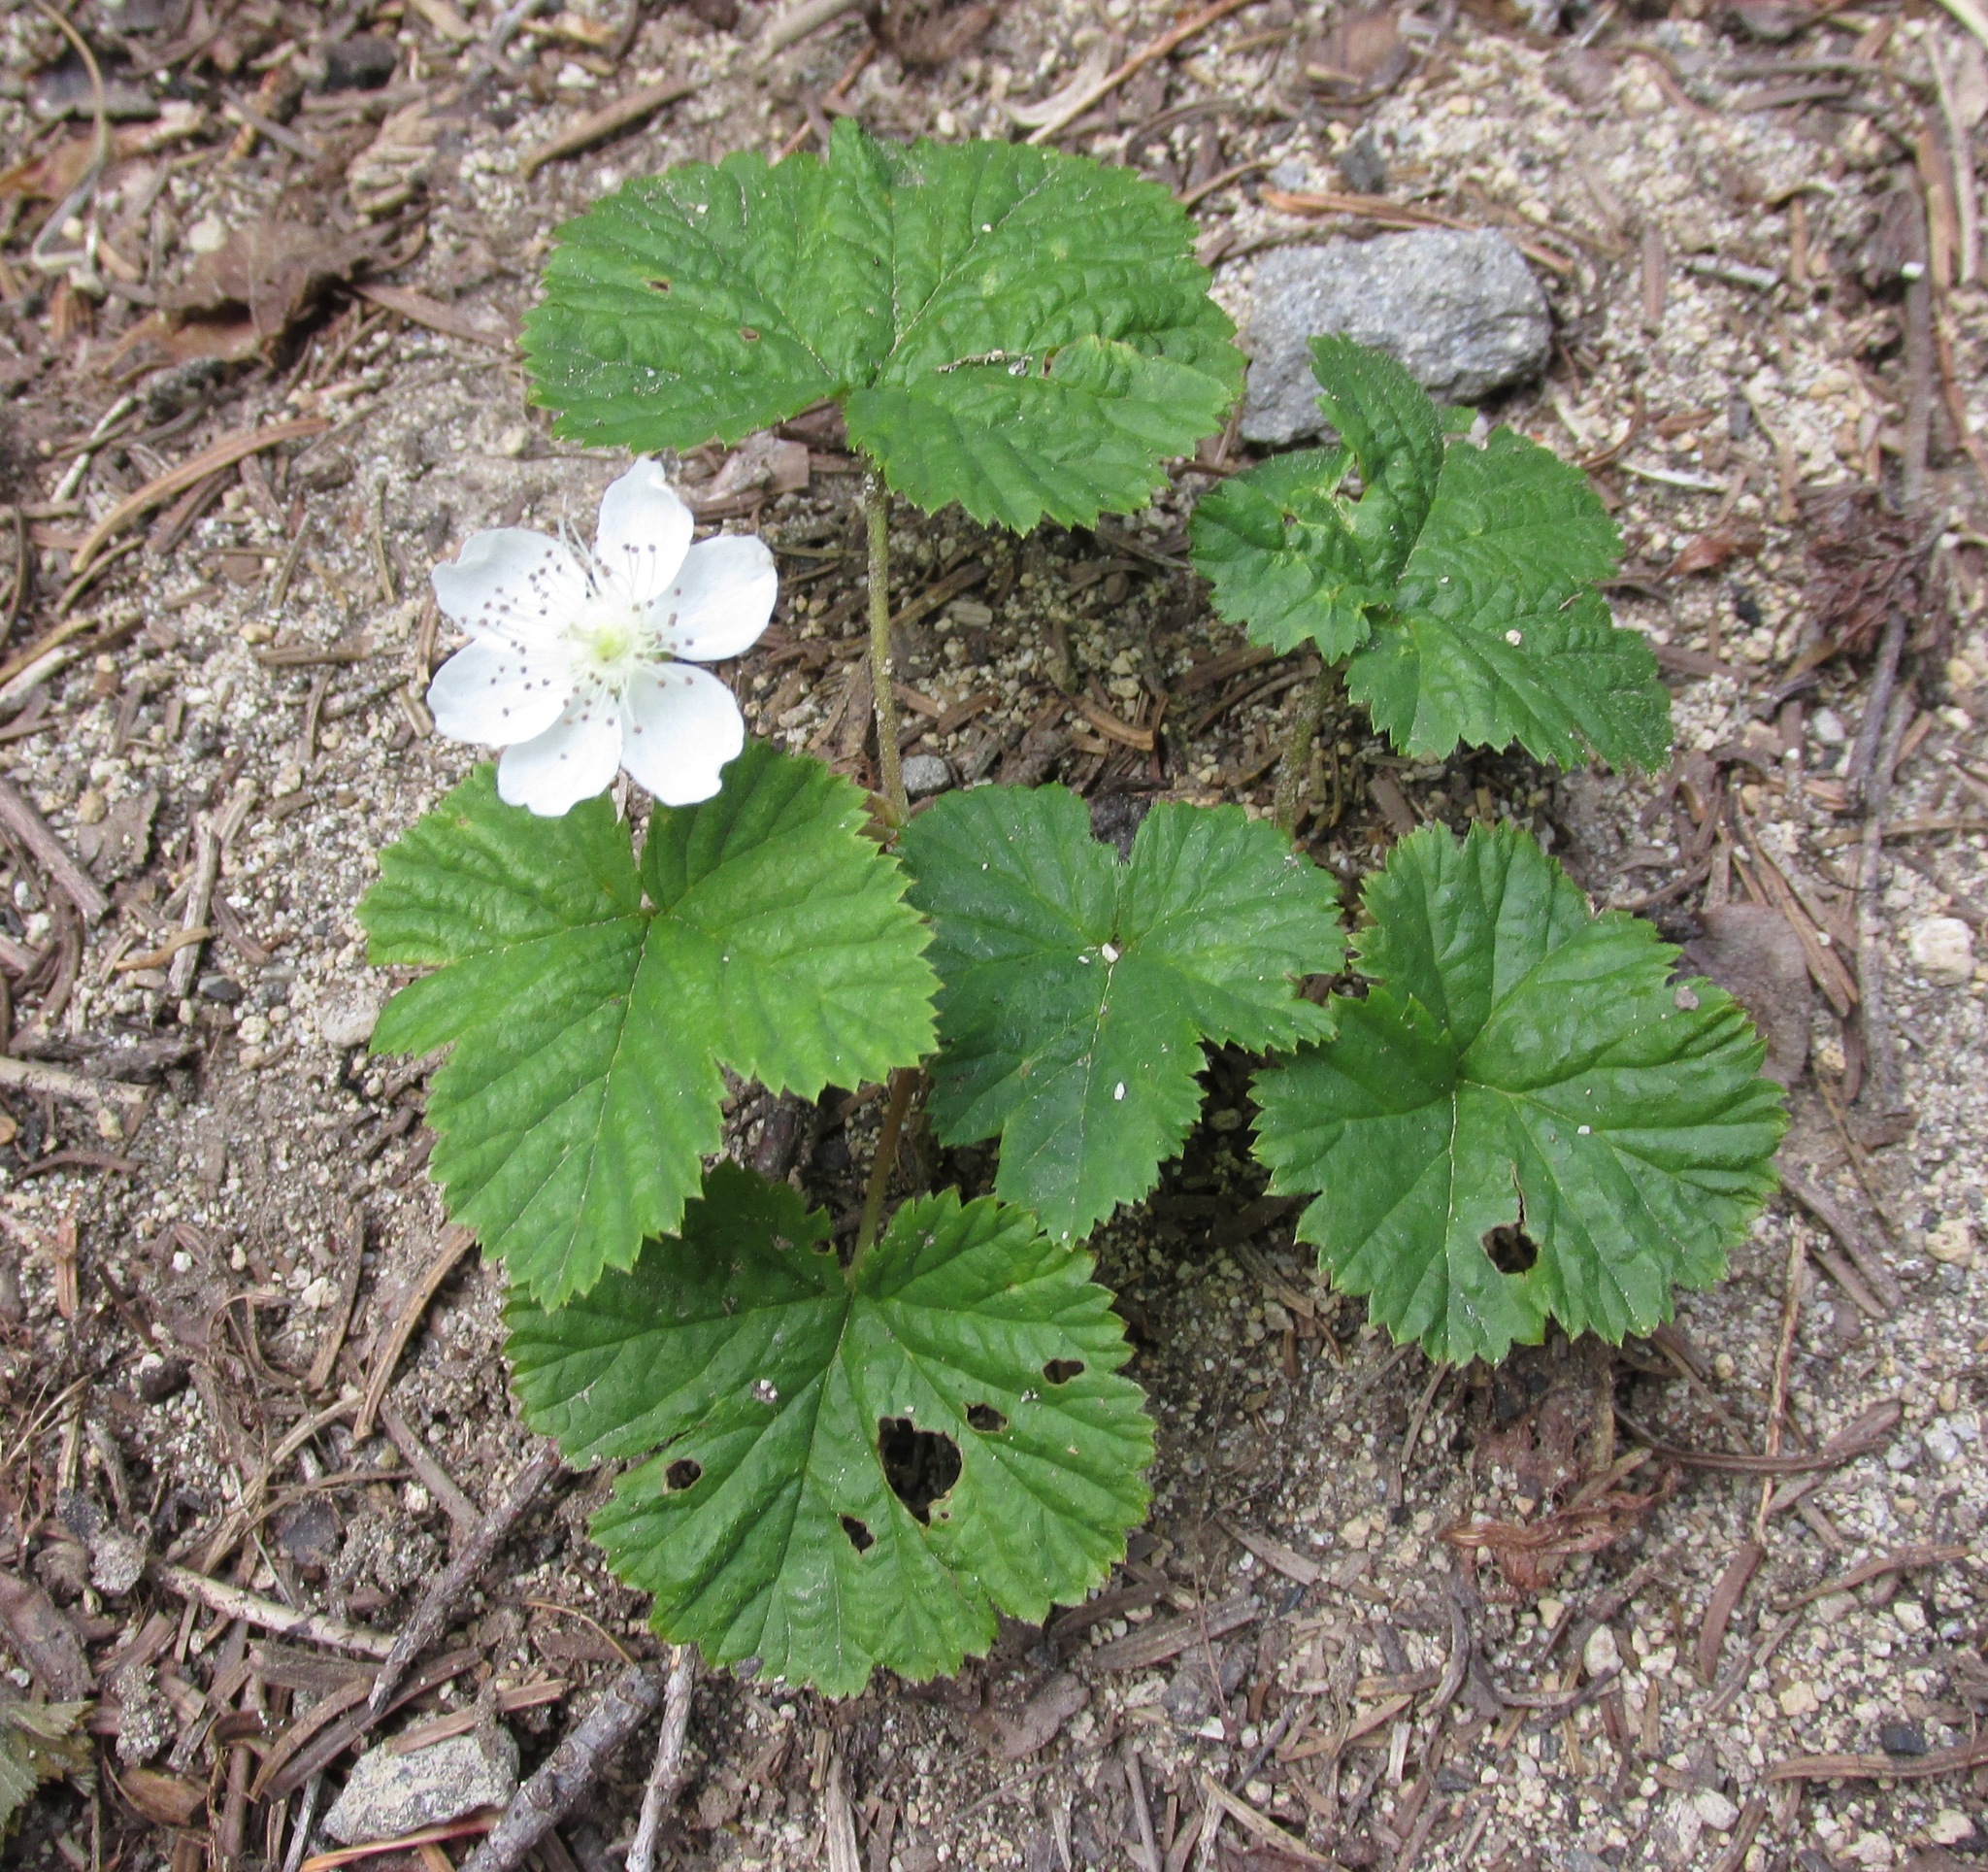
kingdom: Plantae
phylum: Tracheophyta
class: Magnoliopsida
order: Rosales
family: Rosaceae
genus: Rubus
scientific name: Rubus lasiococcus
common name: Dwarf bramble
